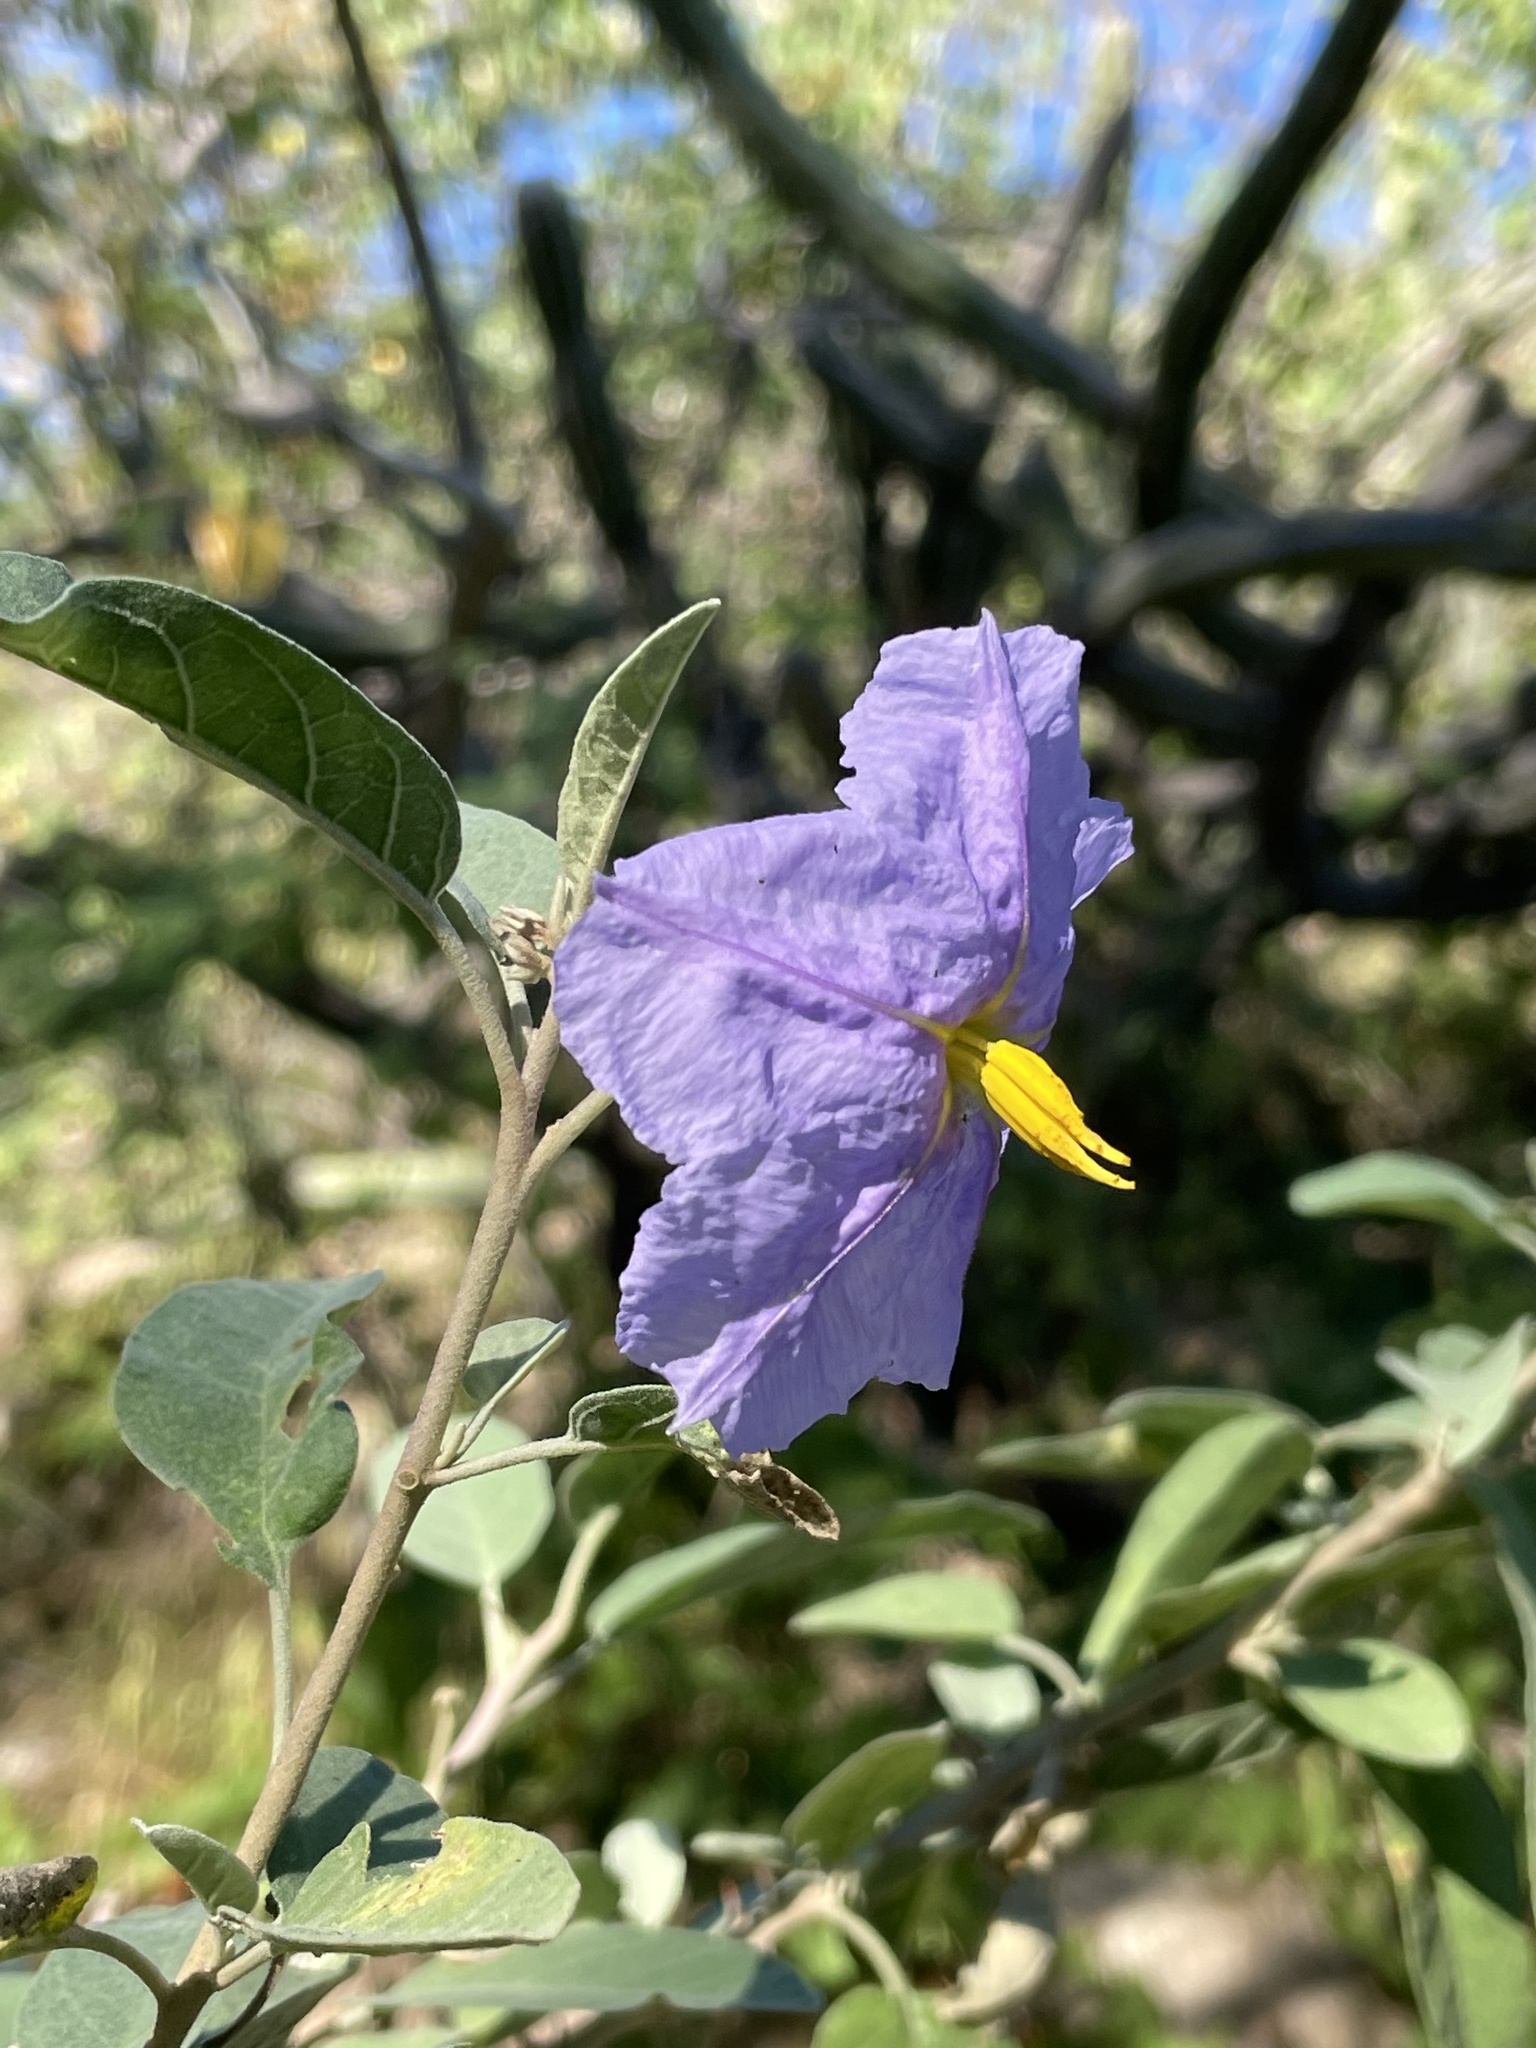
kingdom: Plantae
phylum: Tracheophyta
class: Magnoliopsida
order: Solanales
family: Solanaceae
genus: Solanum
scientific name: Solanum hindsianum
